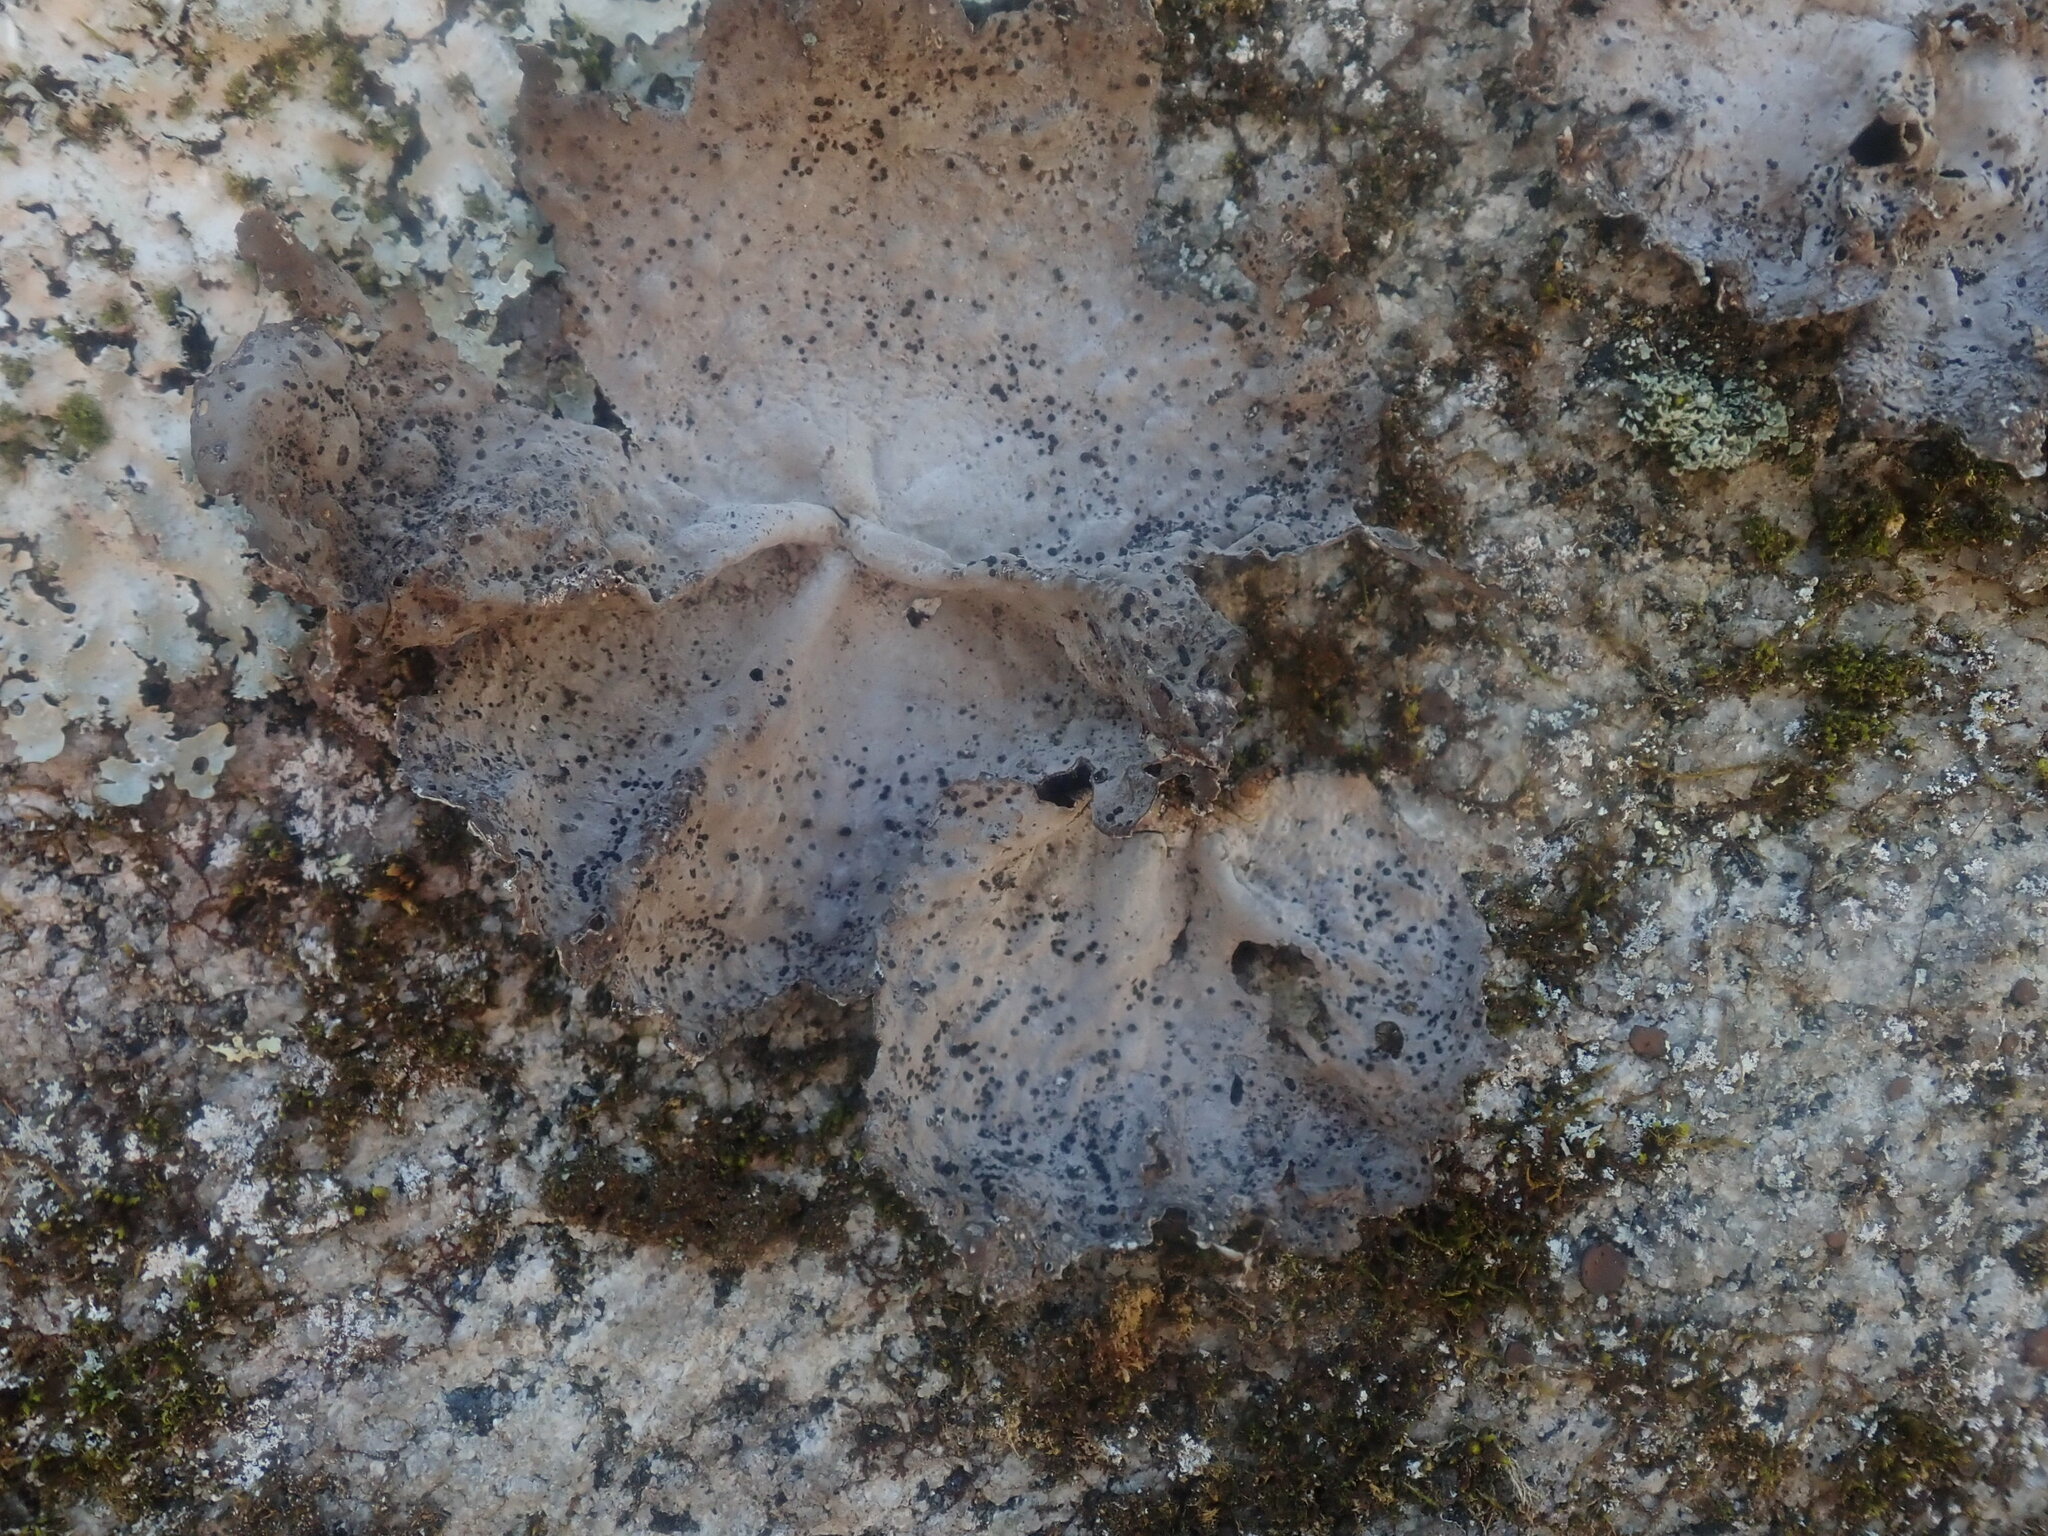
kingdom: Fungi
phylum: Ascomycota
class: Lecanoromycetes
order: Umbilicariales
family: Umbilicariaceae
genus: Lasallia
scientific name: Lasallia papulosa
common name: Common toadskin lichen
